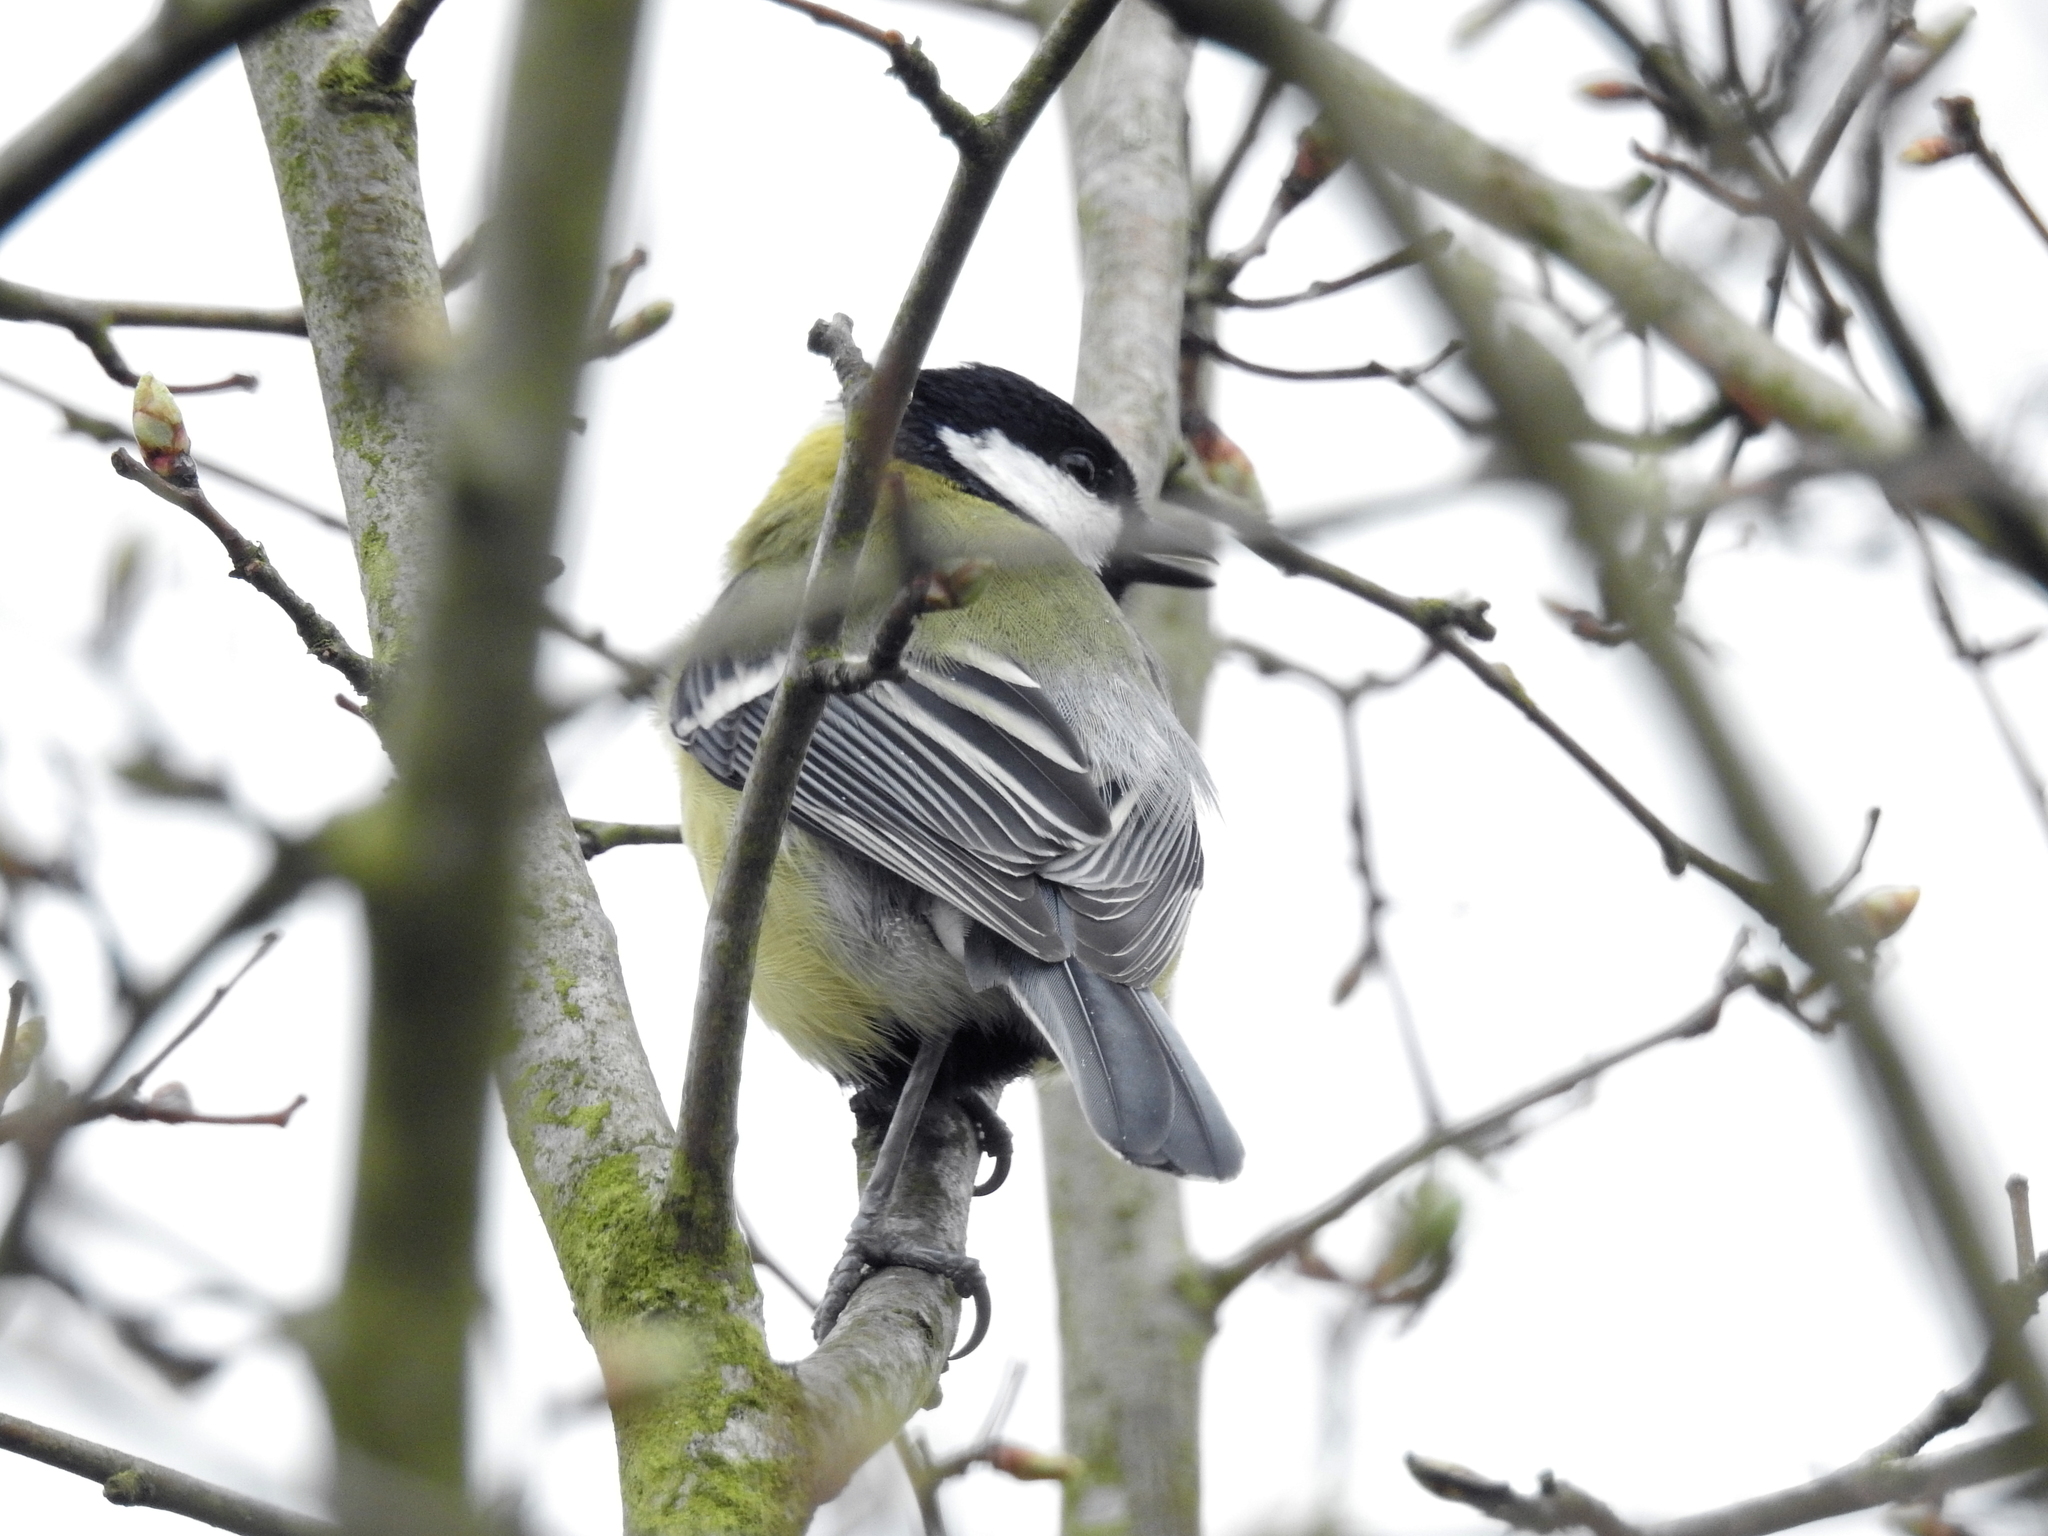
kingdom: Animalia
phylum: Chordata
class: Aves
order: Passeriformes
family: Paridae
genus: Parus
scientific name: Parus major
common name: Great tit
